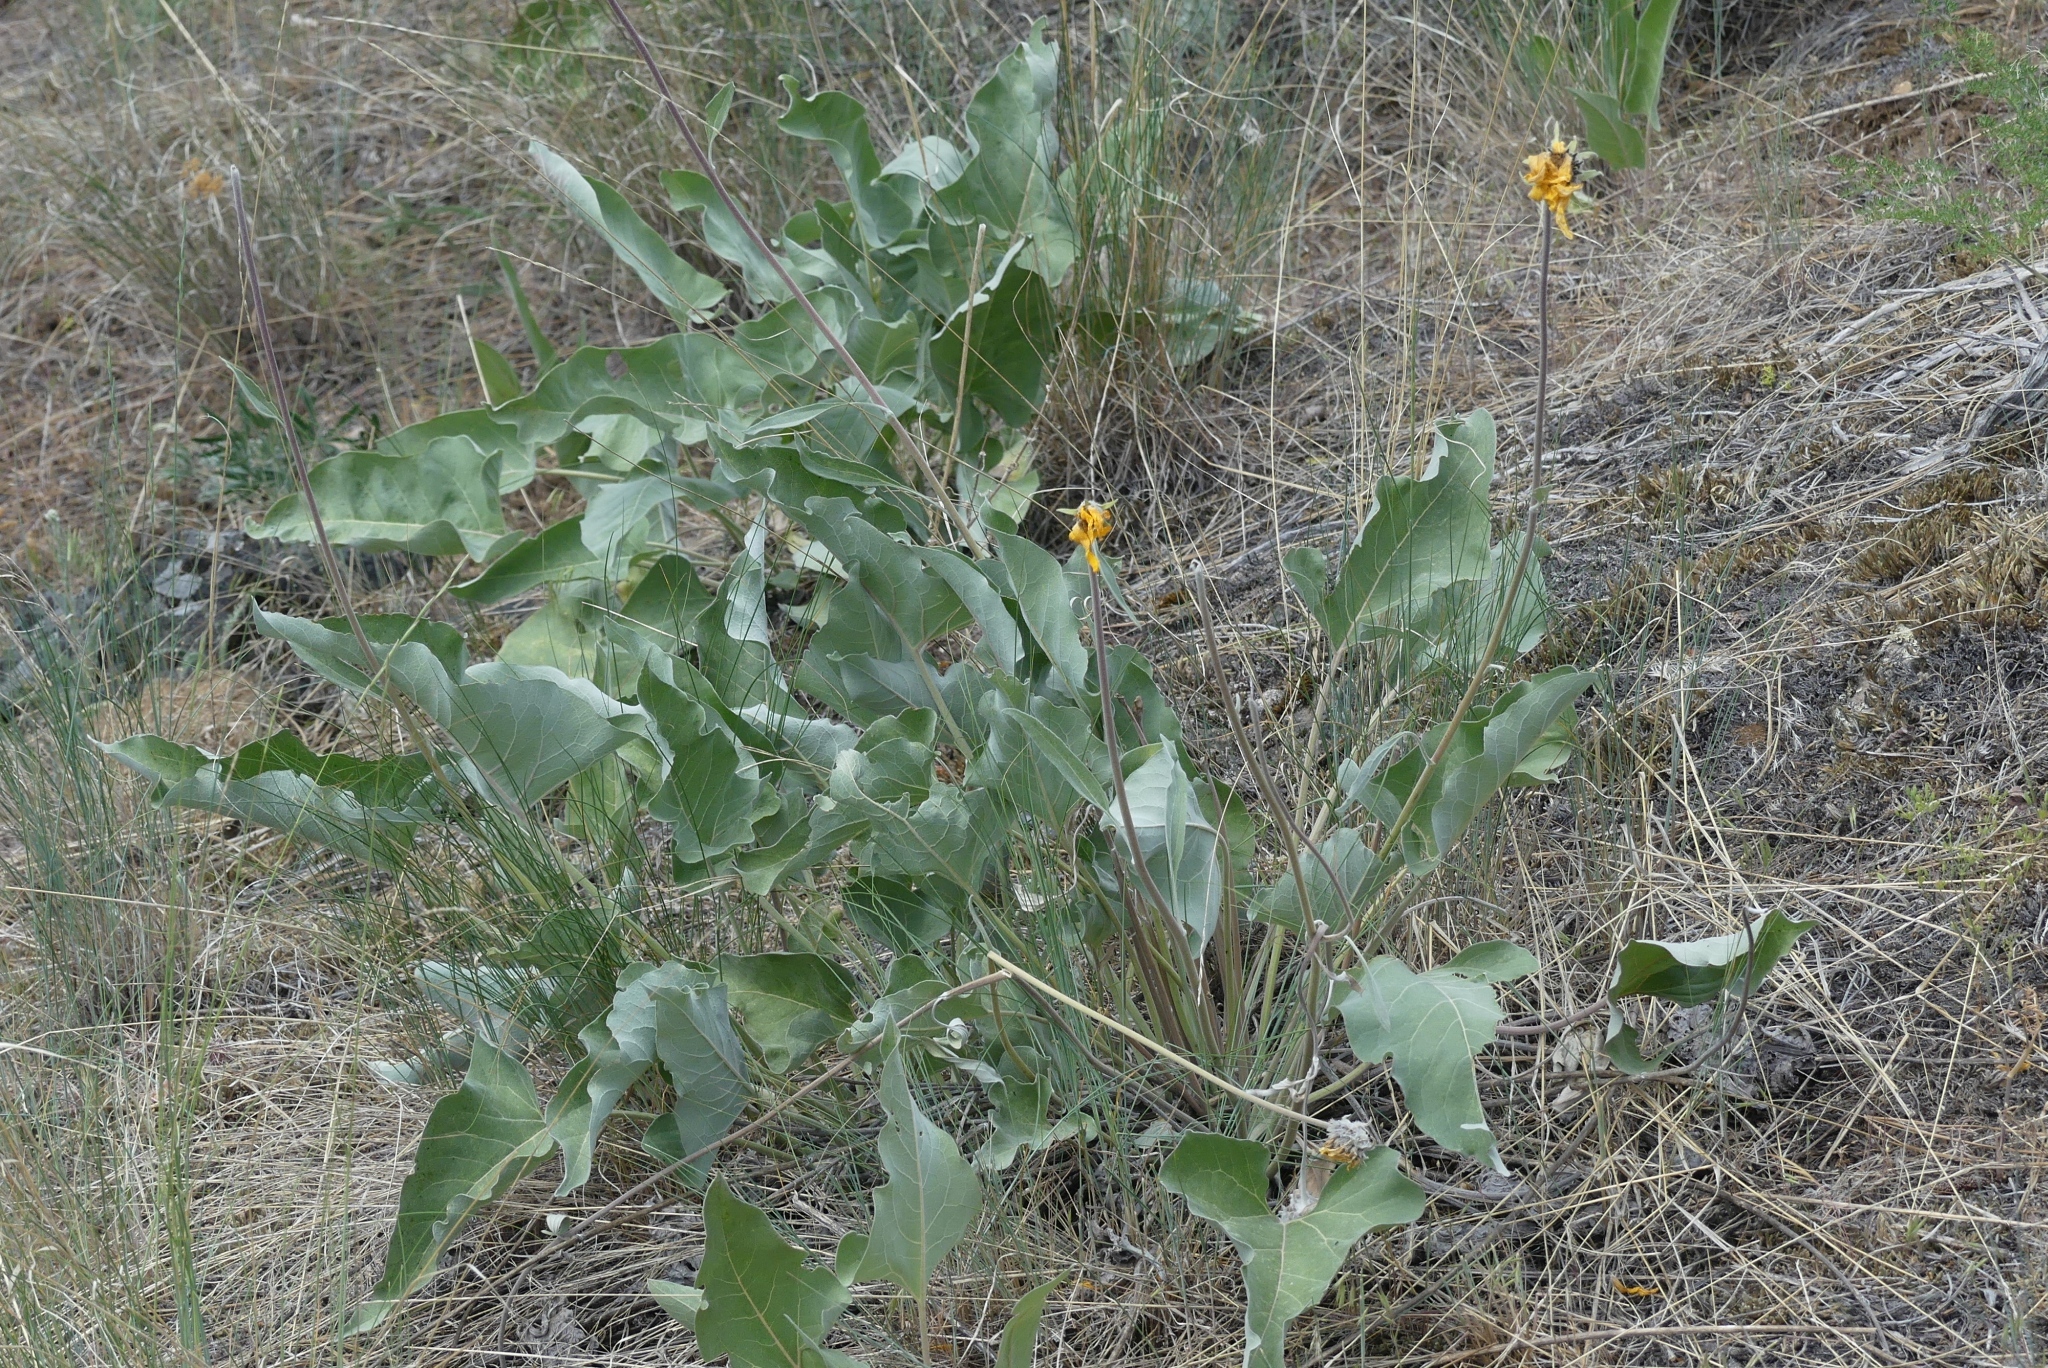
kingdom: Plantae
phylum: Tracheophyta
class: Magnoliopsida
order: Asterales
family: Asteraceae
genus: Wyethia
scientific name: Wyethia sagittata
